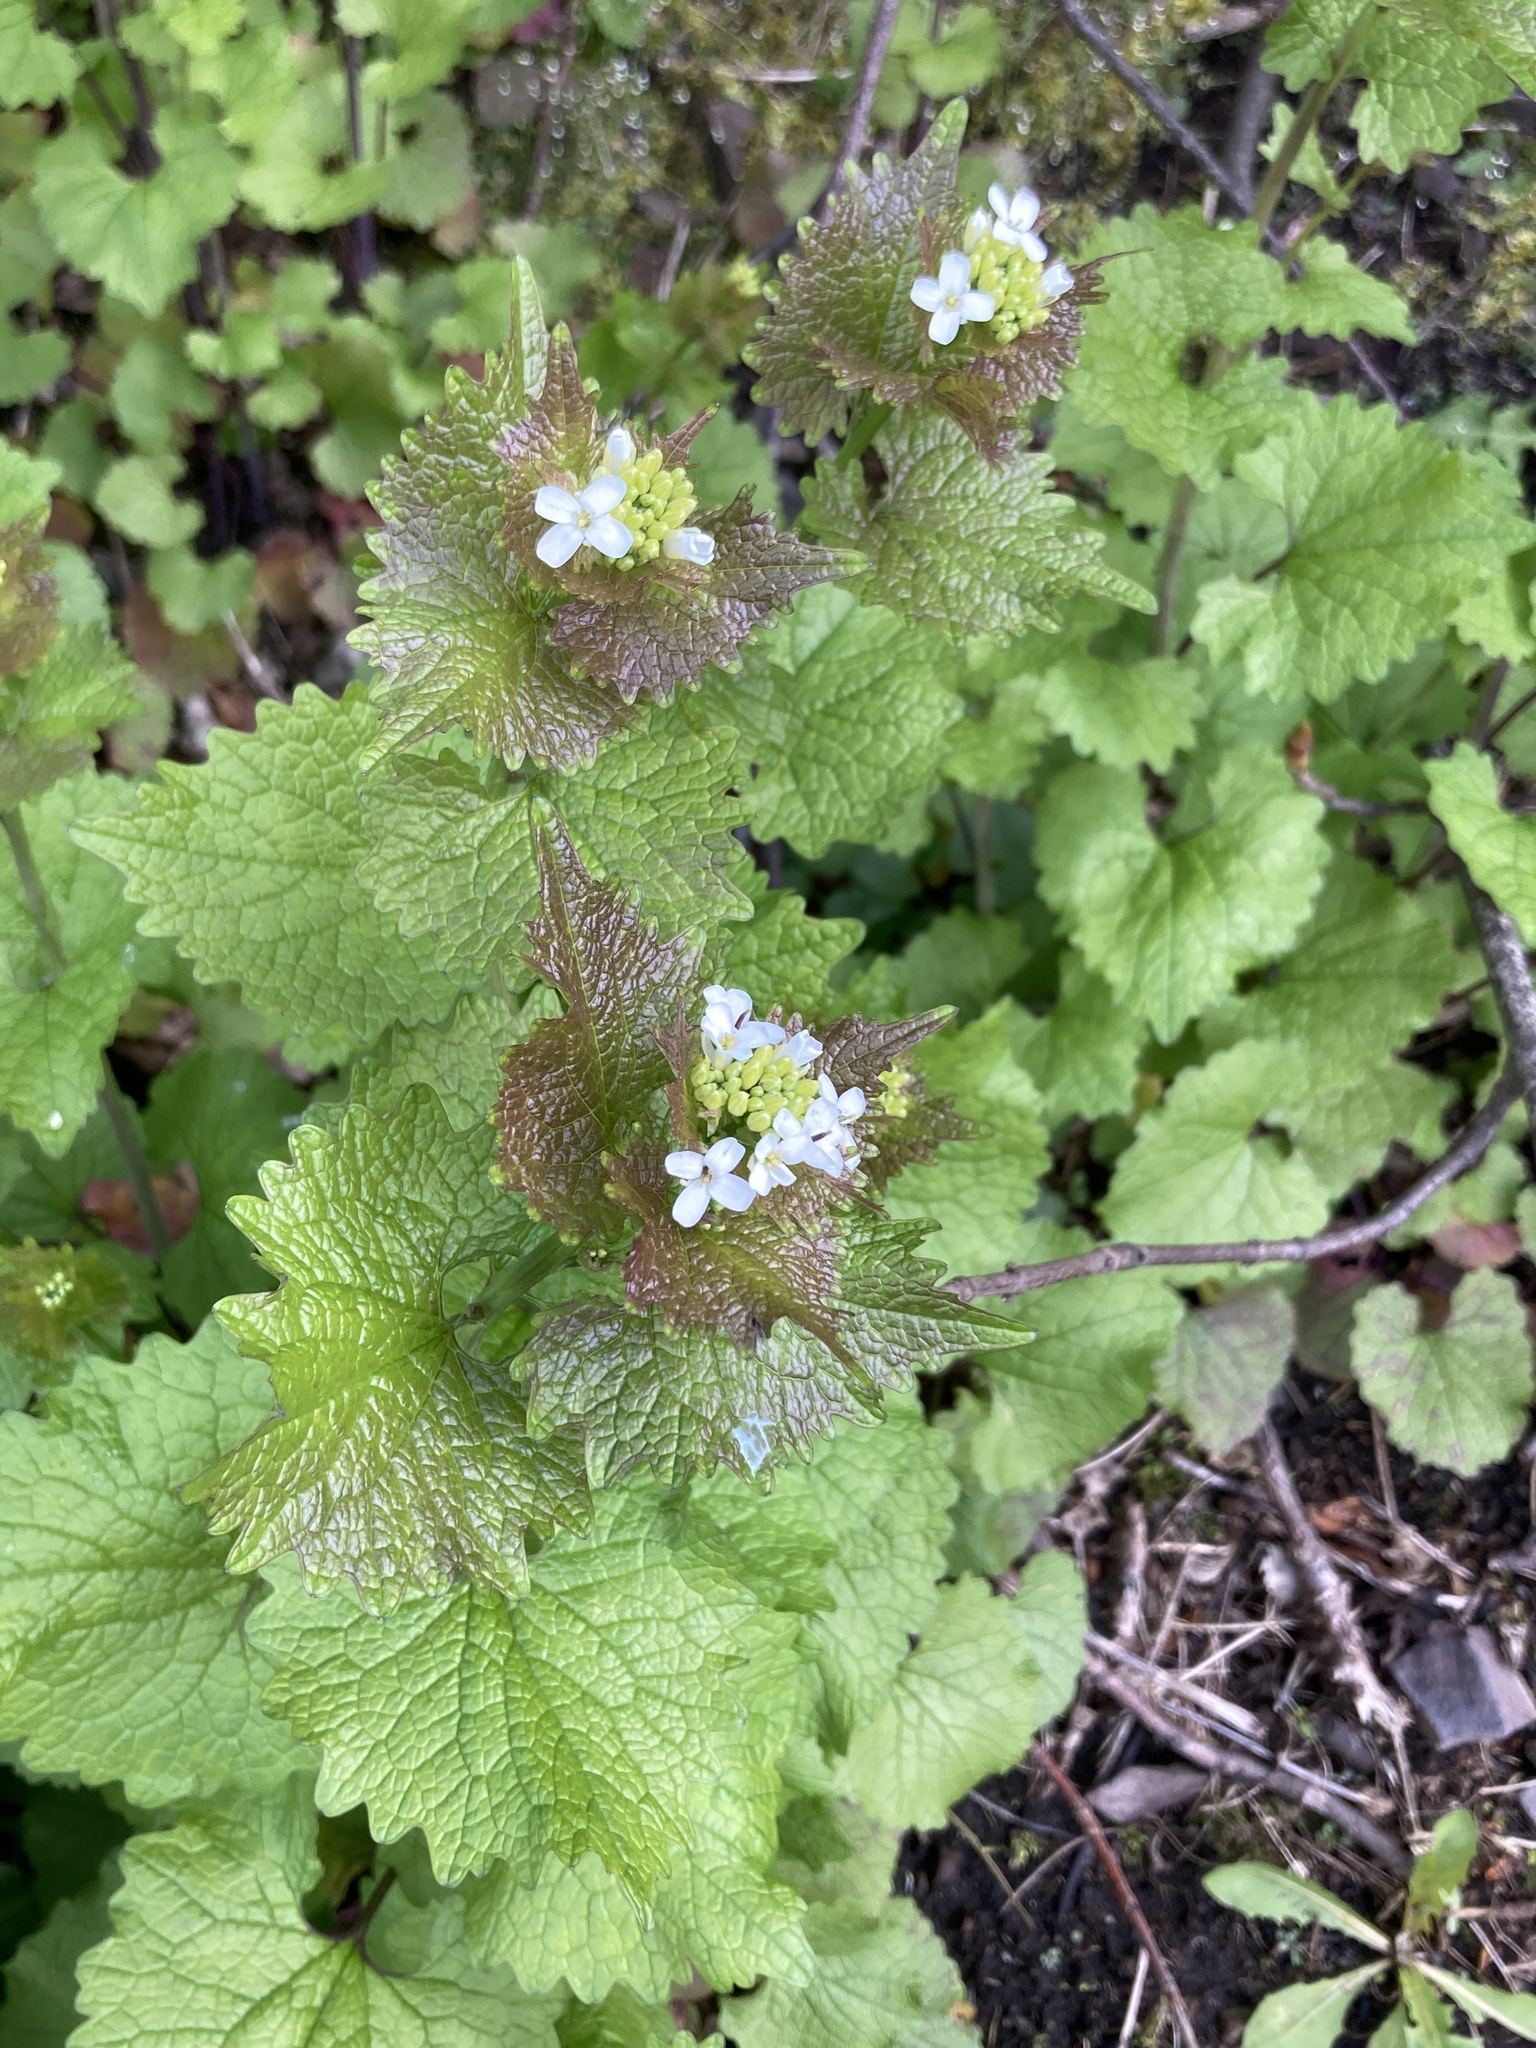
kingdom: Plantae
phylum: Tracheophyta
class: Magnoliopsida
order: Brassicales
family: Brassicaceae
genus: Alliaria
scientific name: Alliaria petiolata
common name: Garlic mustard
